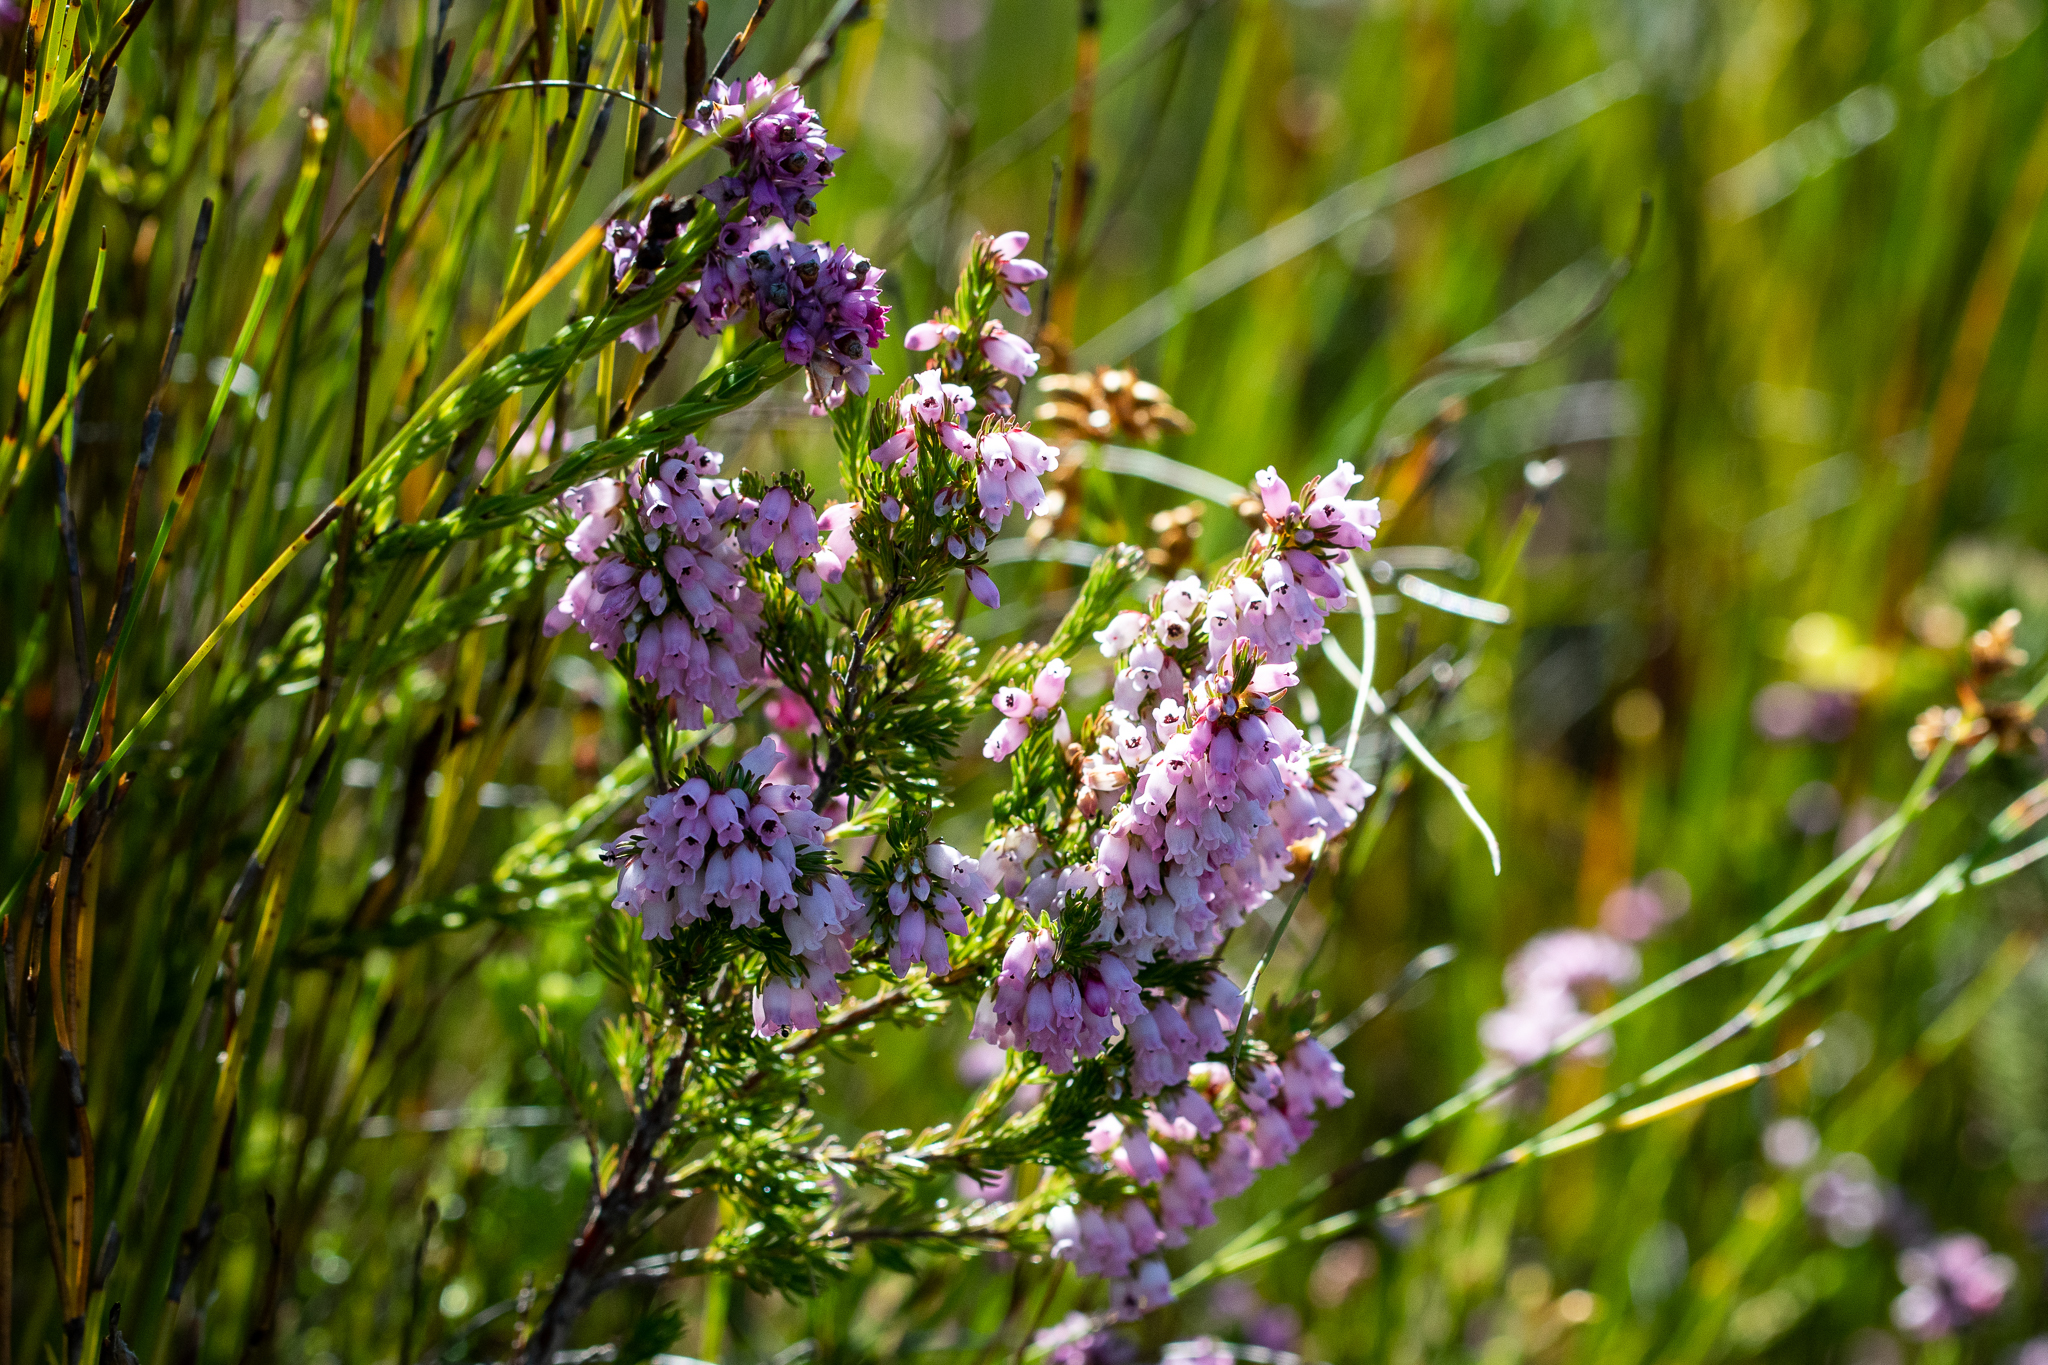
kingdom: Plantae
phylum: Tracheophyta
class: Magnoliopsida
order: Ericales
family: Ericaceae
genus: Erica
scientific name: Erica tenella
